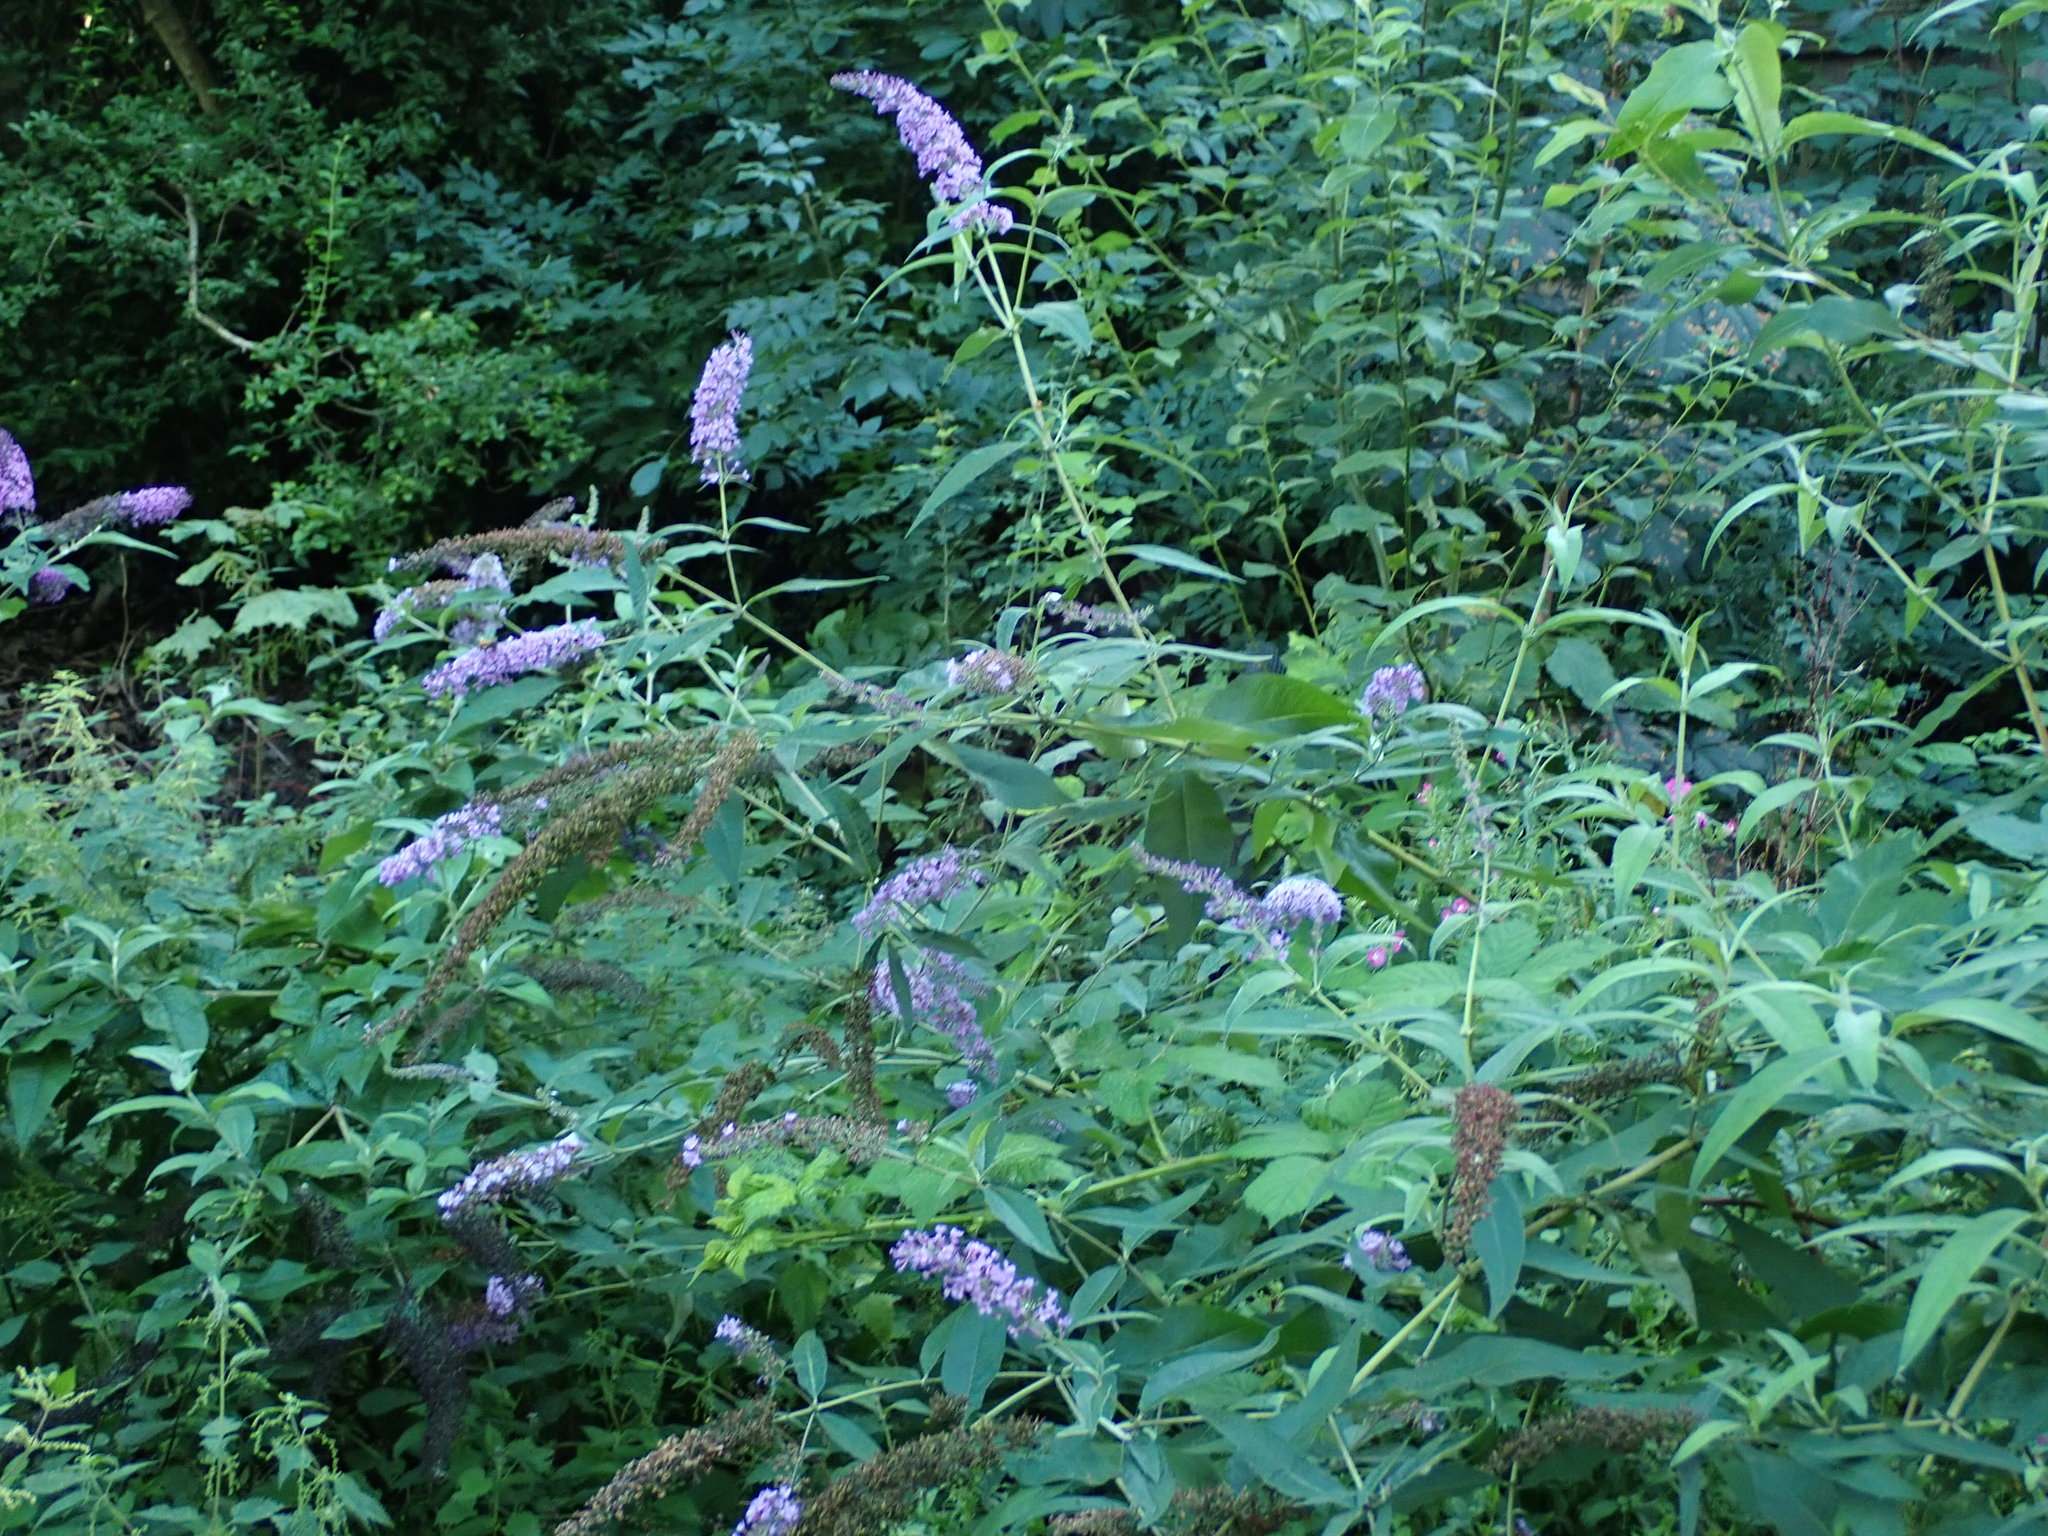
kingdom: Plantae
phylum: Tracheophyta
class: Magnoliopsida
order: Lamiales
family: Scrophulariaceae
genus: Buddleja
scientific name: Buddleja davidii
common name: Butterfly-bush
